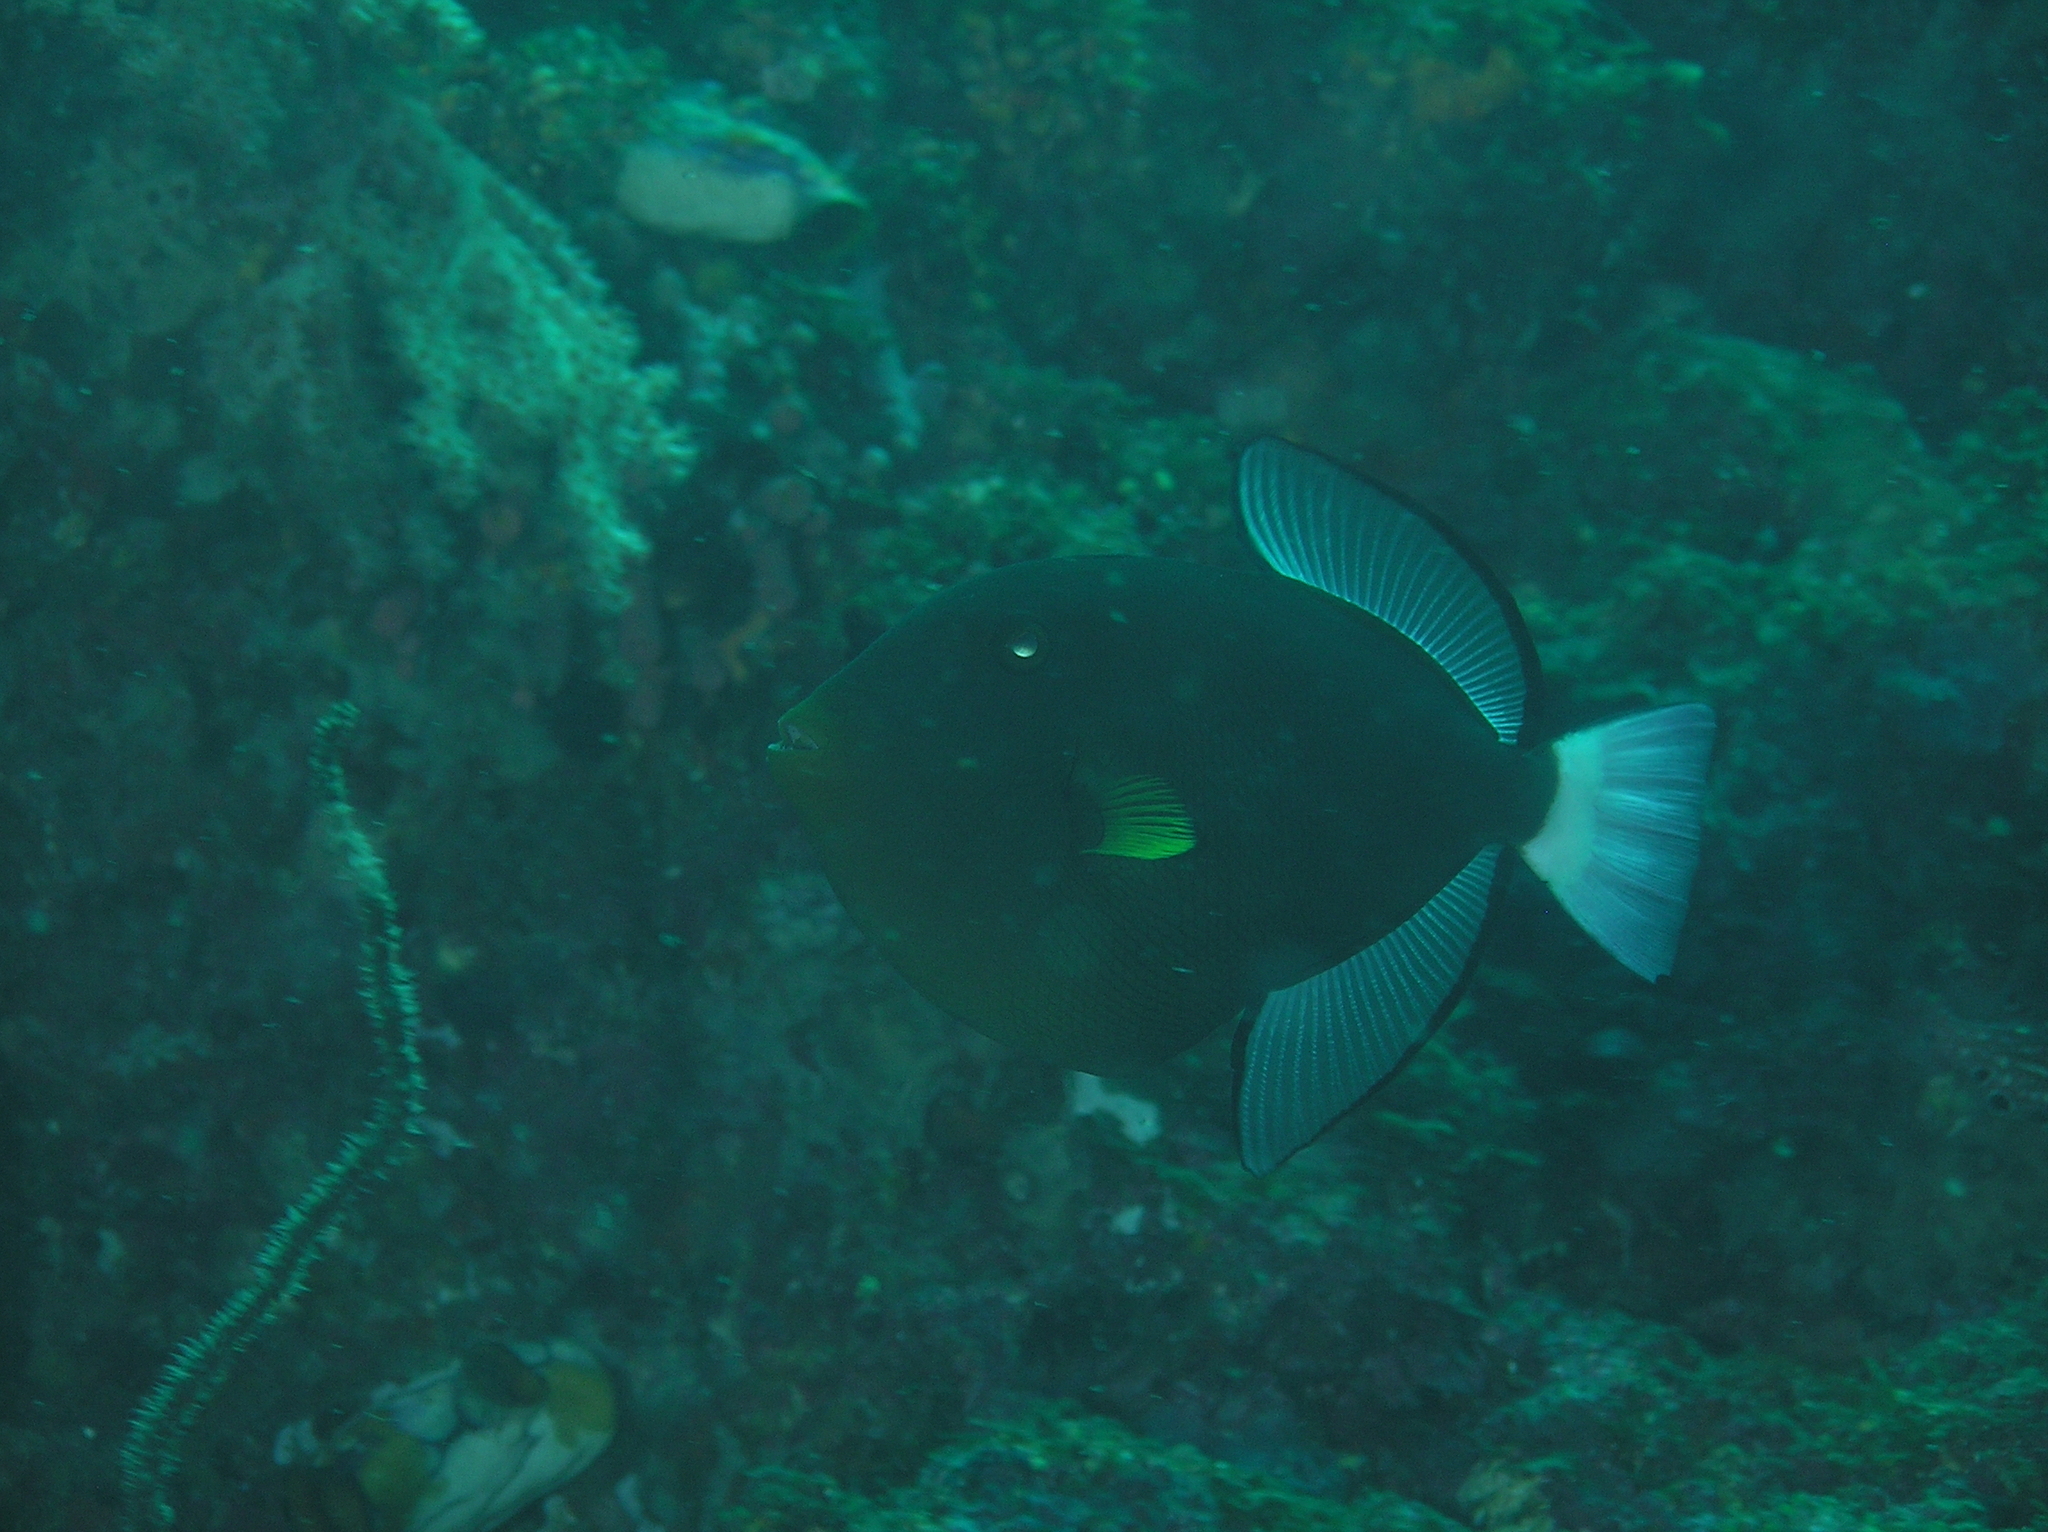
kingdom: Animalia
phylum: Chordata
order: Tetraodontiformes
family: Balistidae
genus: Melichthys
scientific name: Melichthys vidua
